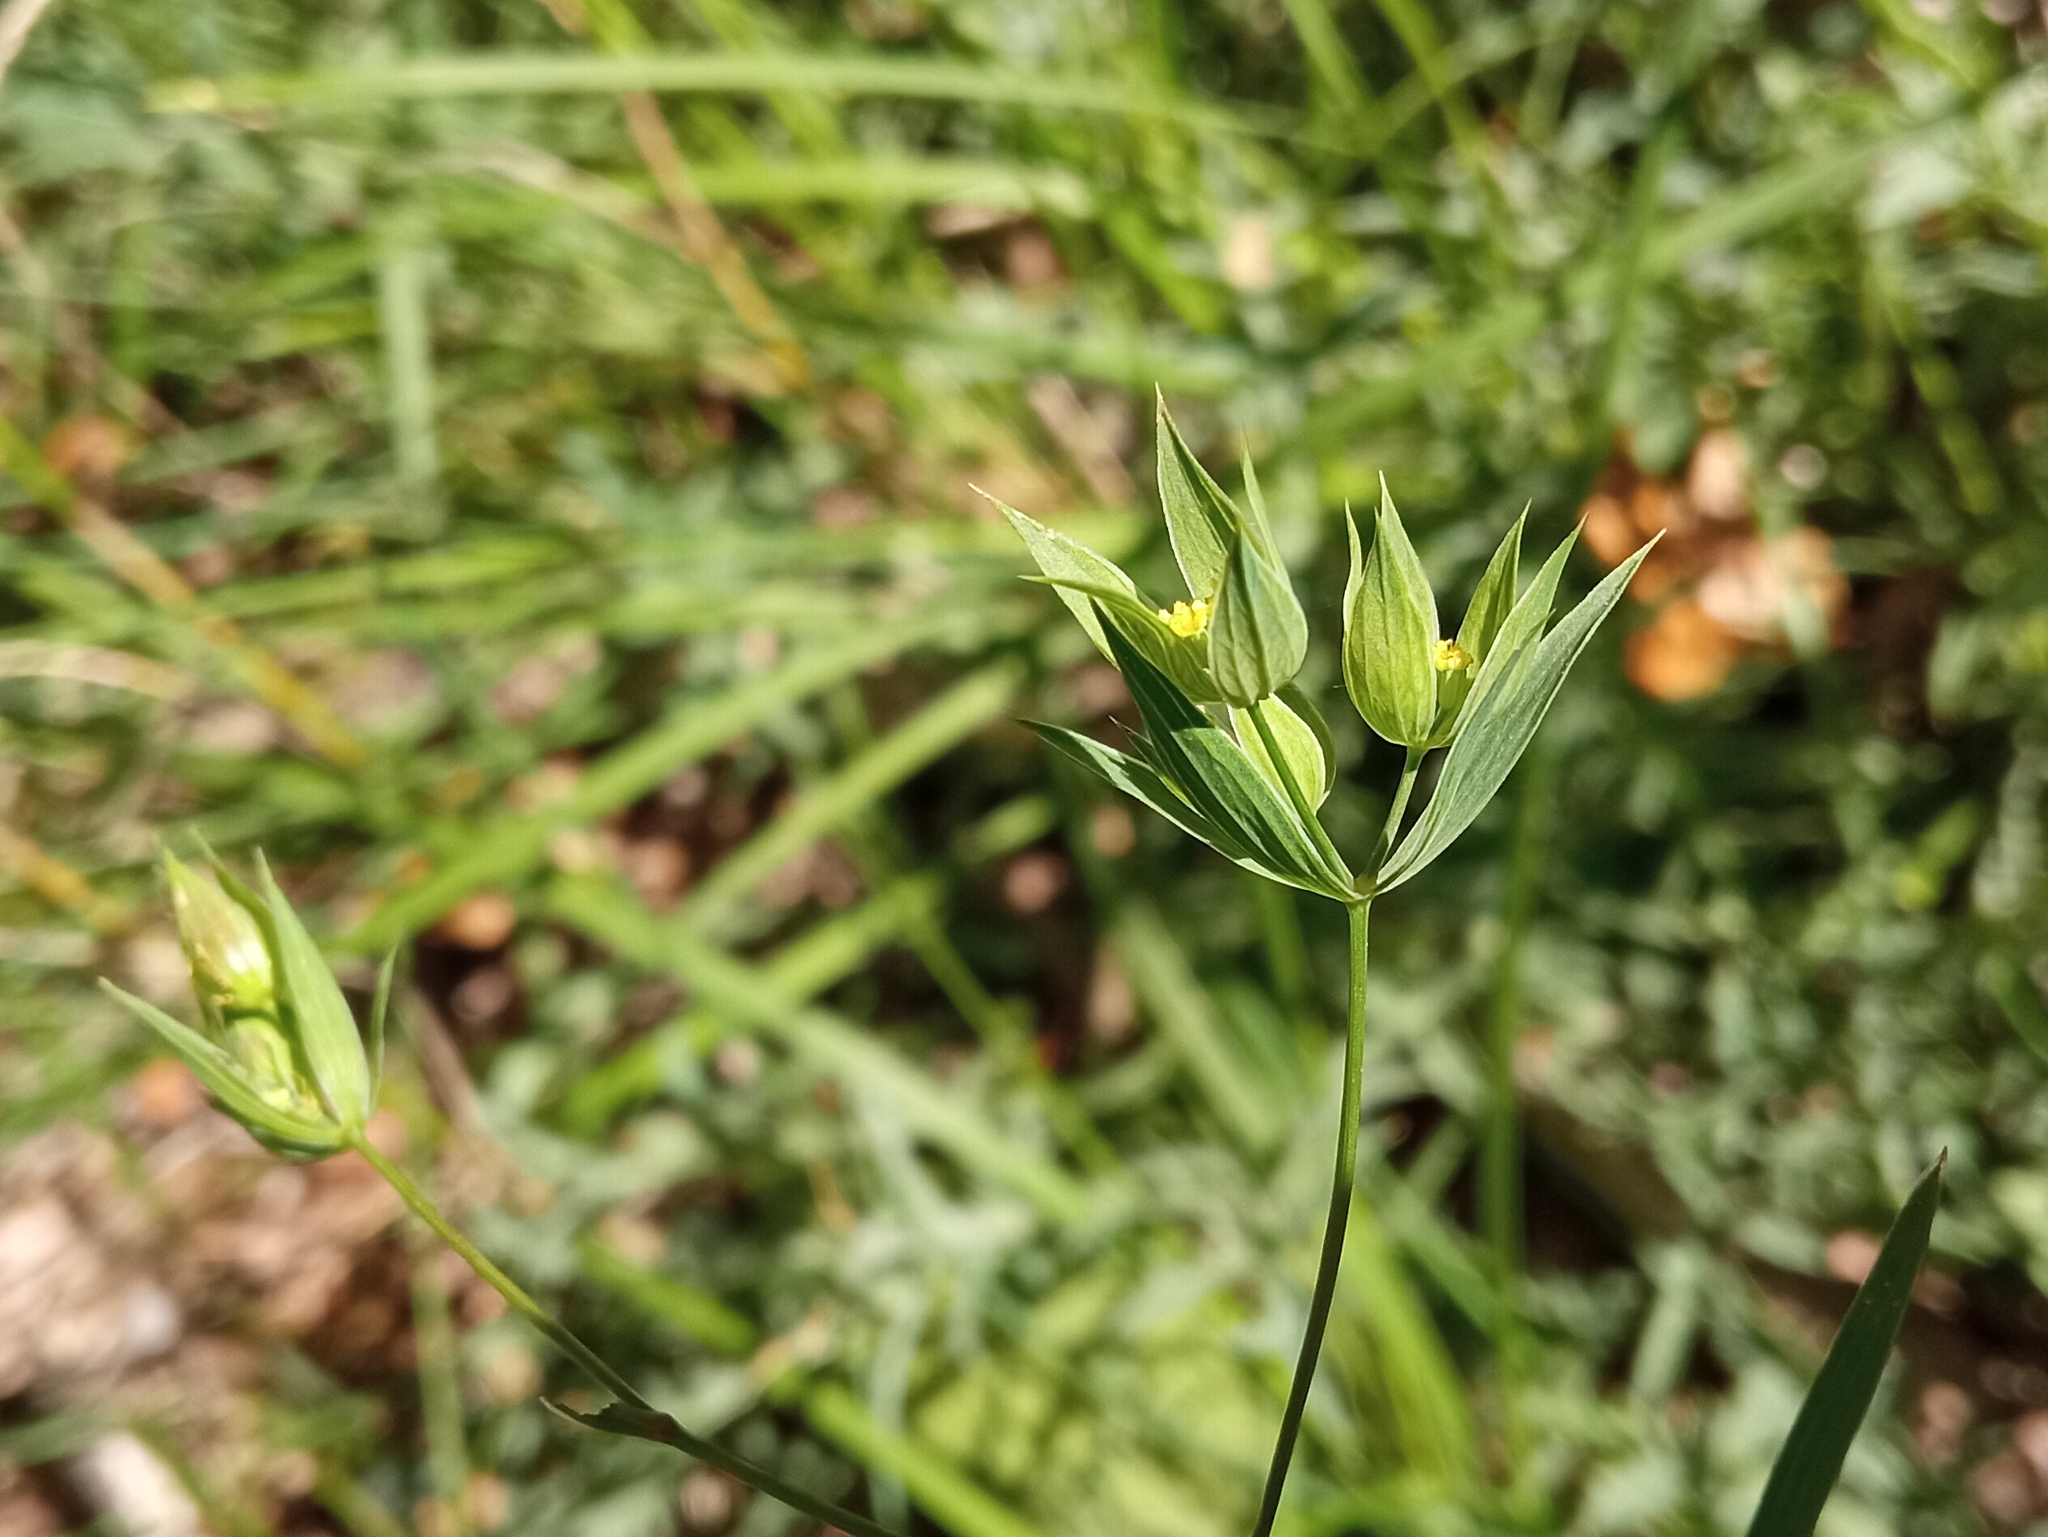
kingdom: Plantae
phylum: Tracheophyta
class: Magnoliopsida
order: Apiales
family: Apiaceae
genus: Bupleurum
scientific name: Bupleurum baldense
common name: Small hare's-ear
